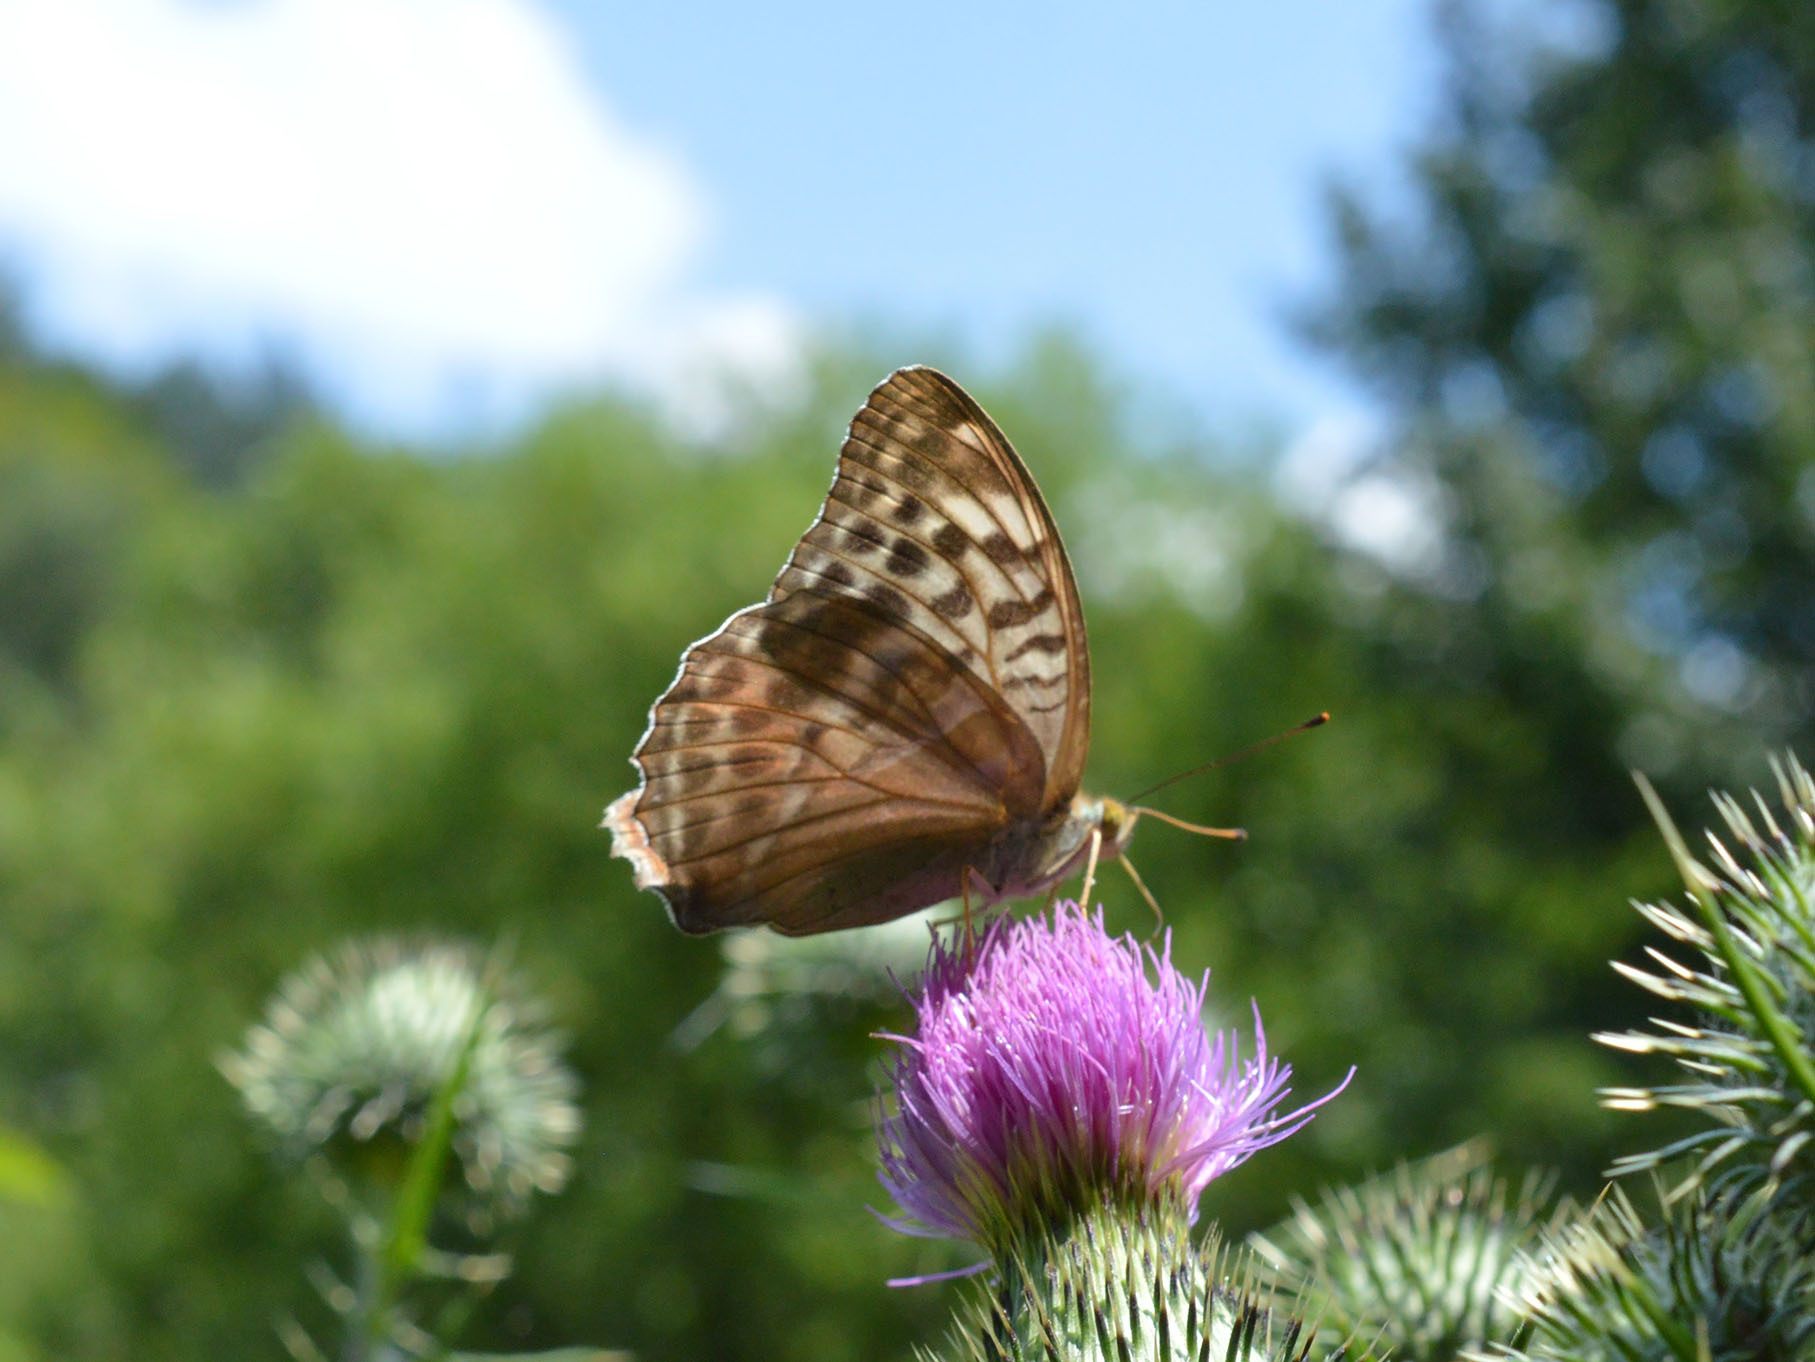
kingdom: Animalia
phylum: Arthropoda
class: Insecta
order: Lepidoptera
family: Nymphalidae
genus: Argynnis
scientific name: Argynnis paphia
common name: Silver-washed fritillary
